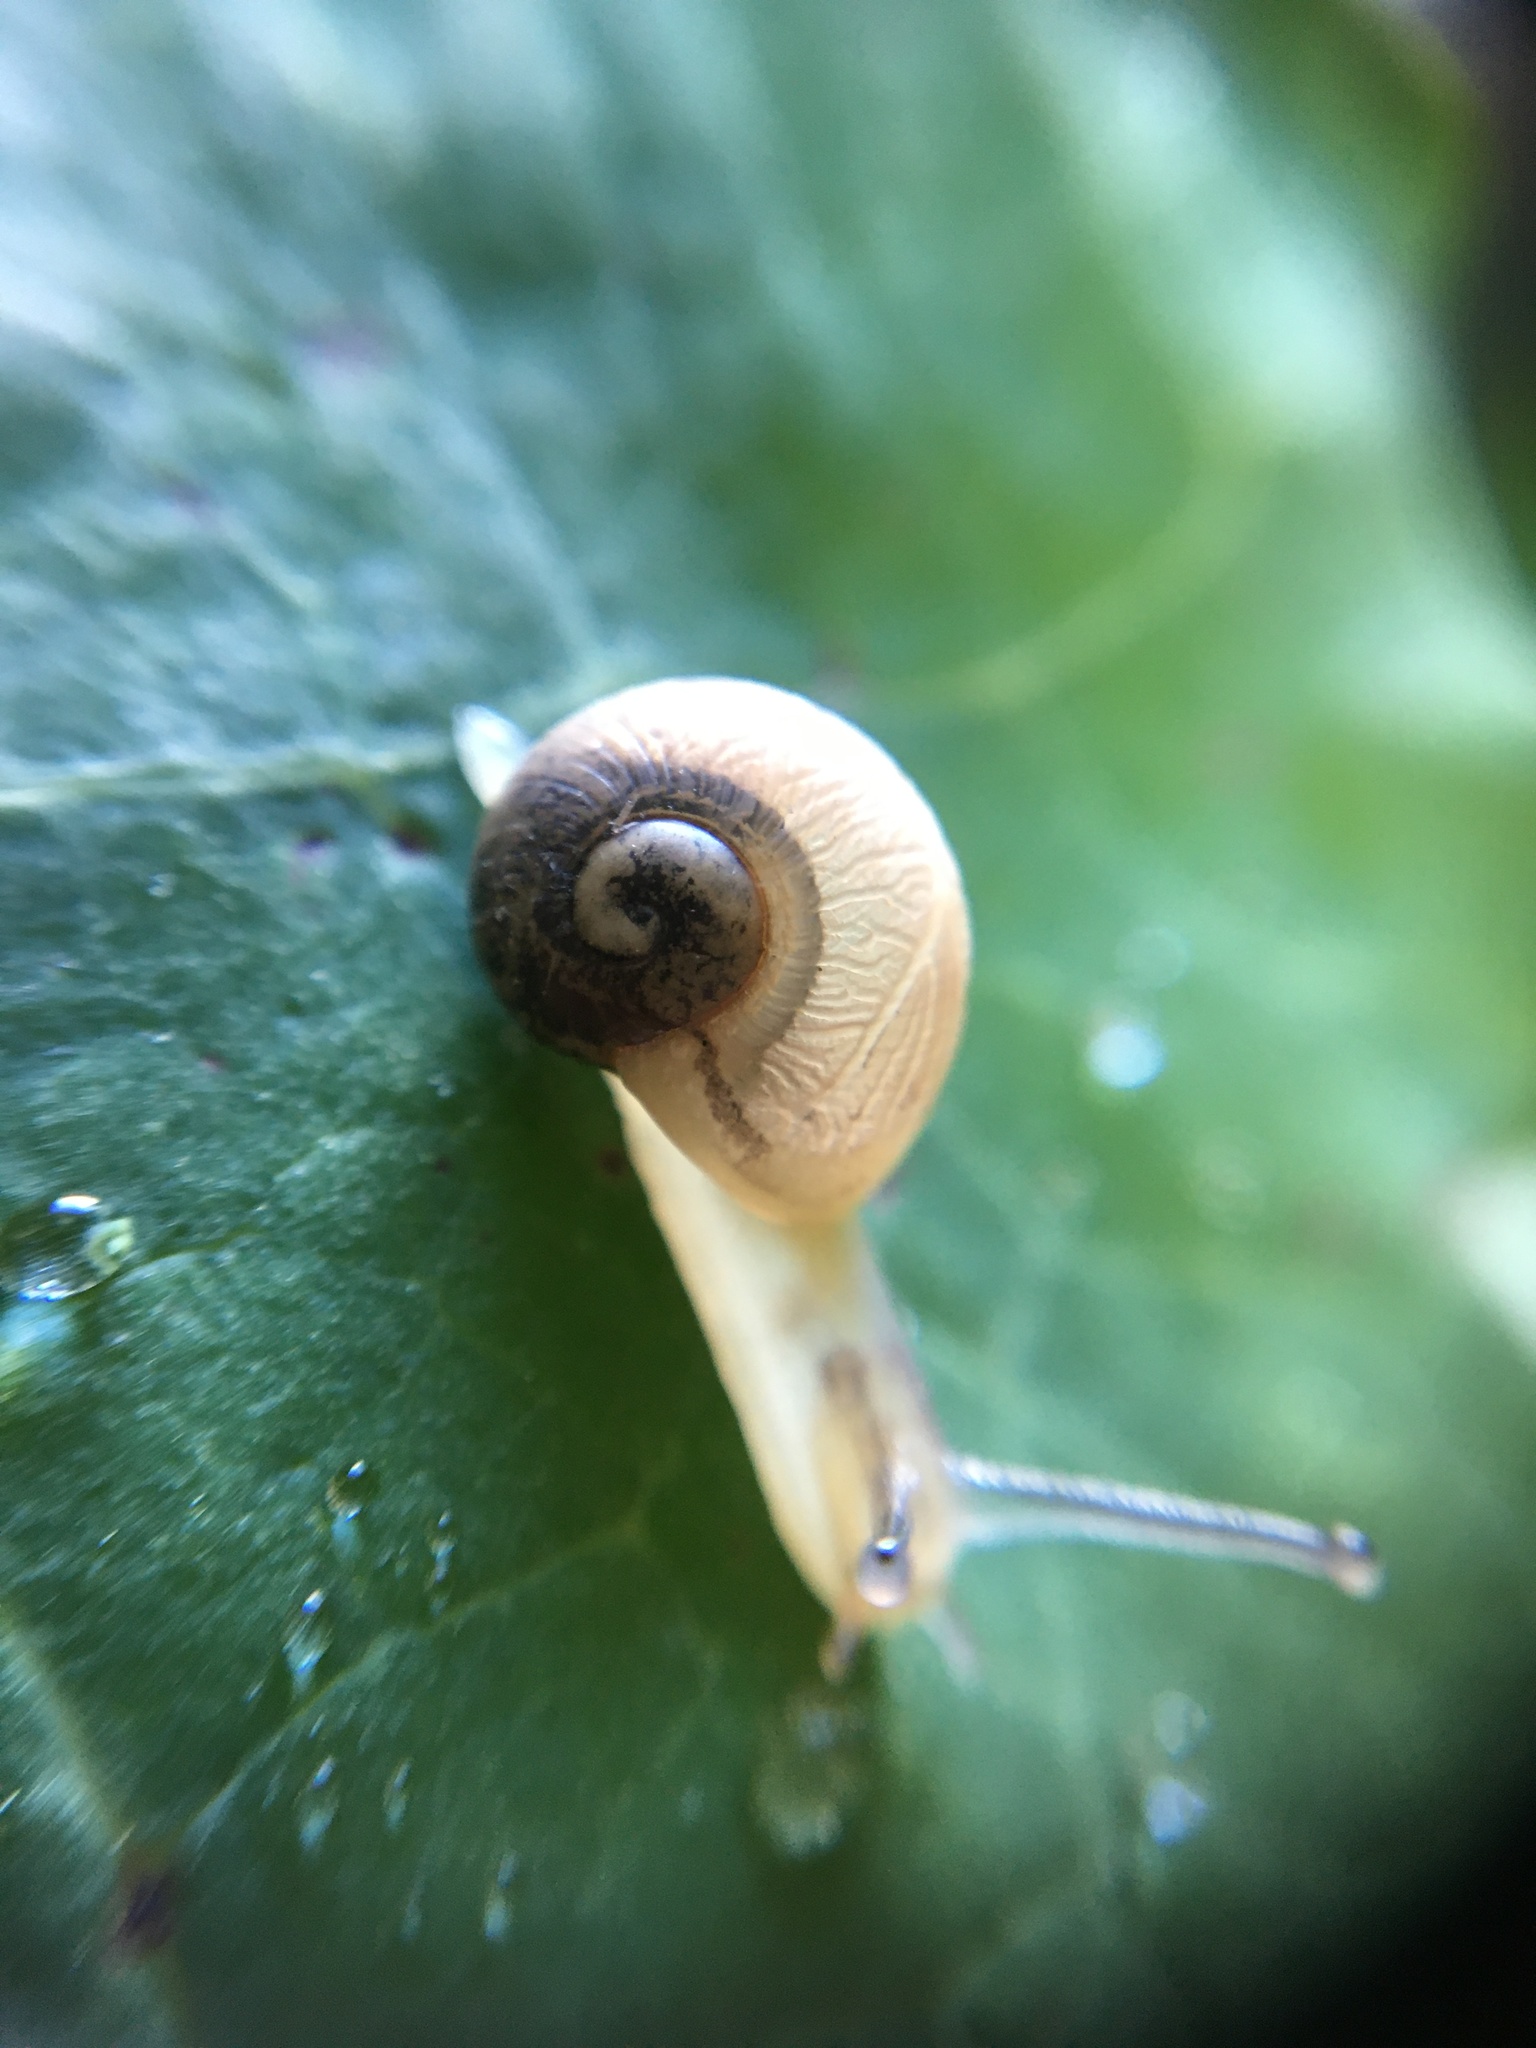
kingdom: Animalia
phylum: Mollusca
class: Gastropoda
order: Stylommatophora
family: Helicidae
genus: Cornu
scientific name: Cornu aspersum
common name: Brown garden snail
